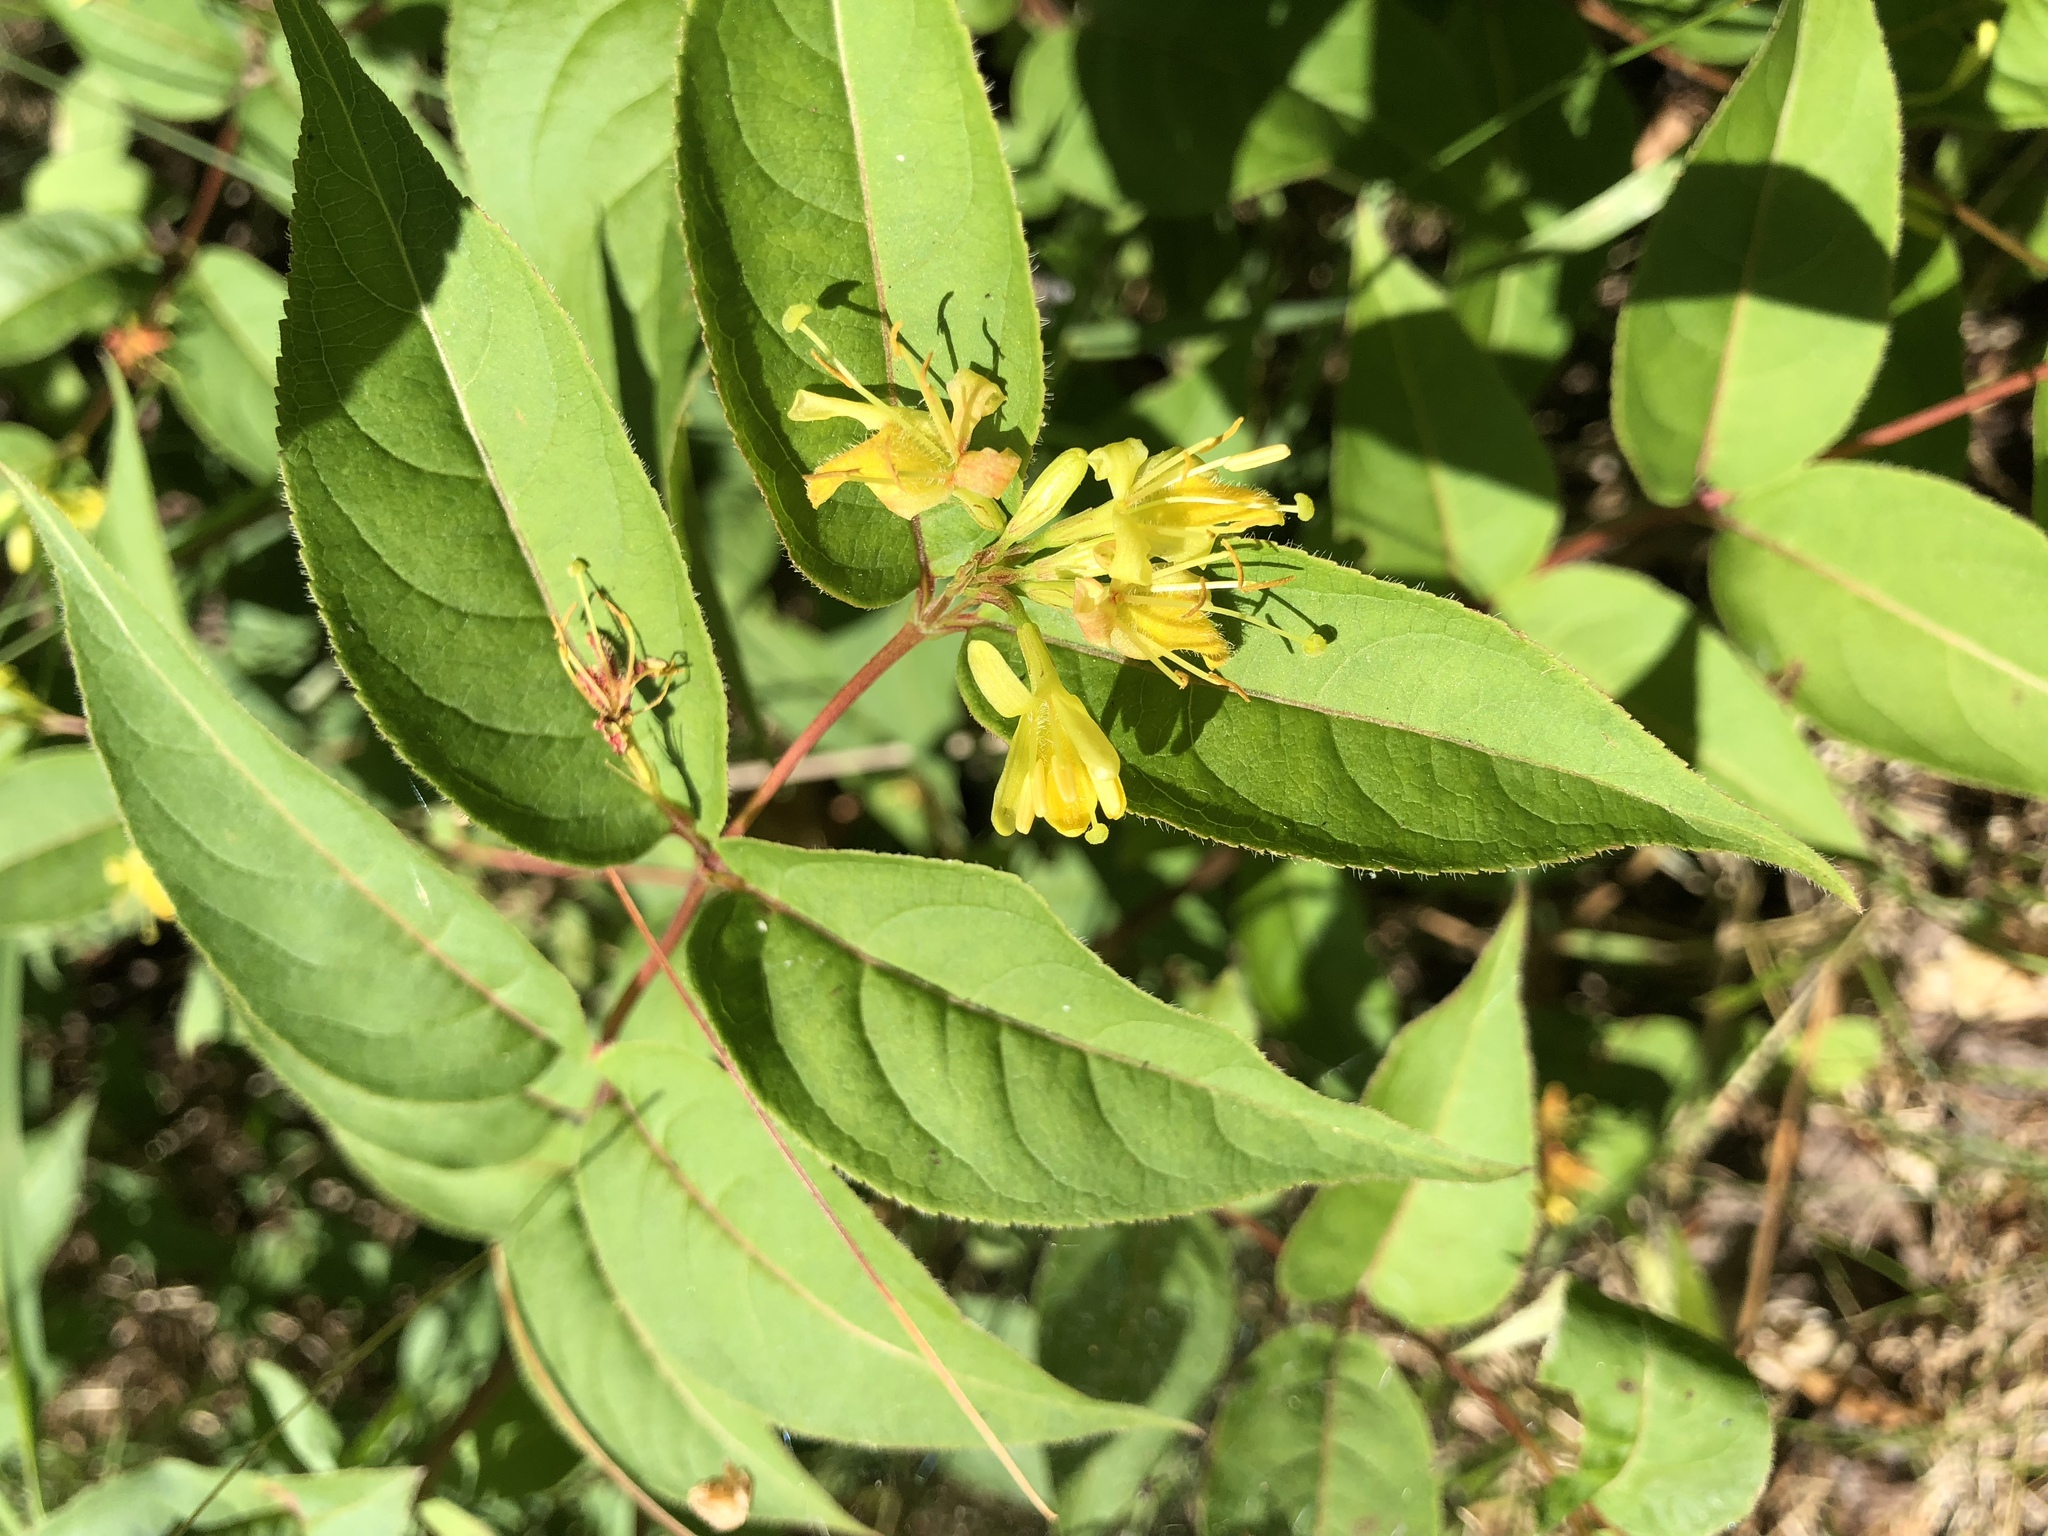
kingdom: Plantae
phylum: Tracheophyta
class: Magnoliopsida
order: Dipsacales
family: Caprifoliaceae
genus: Diervilla
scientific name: Diervilla lonicera
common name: Bush-honeysuckle
